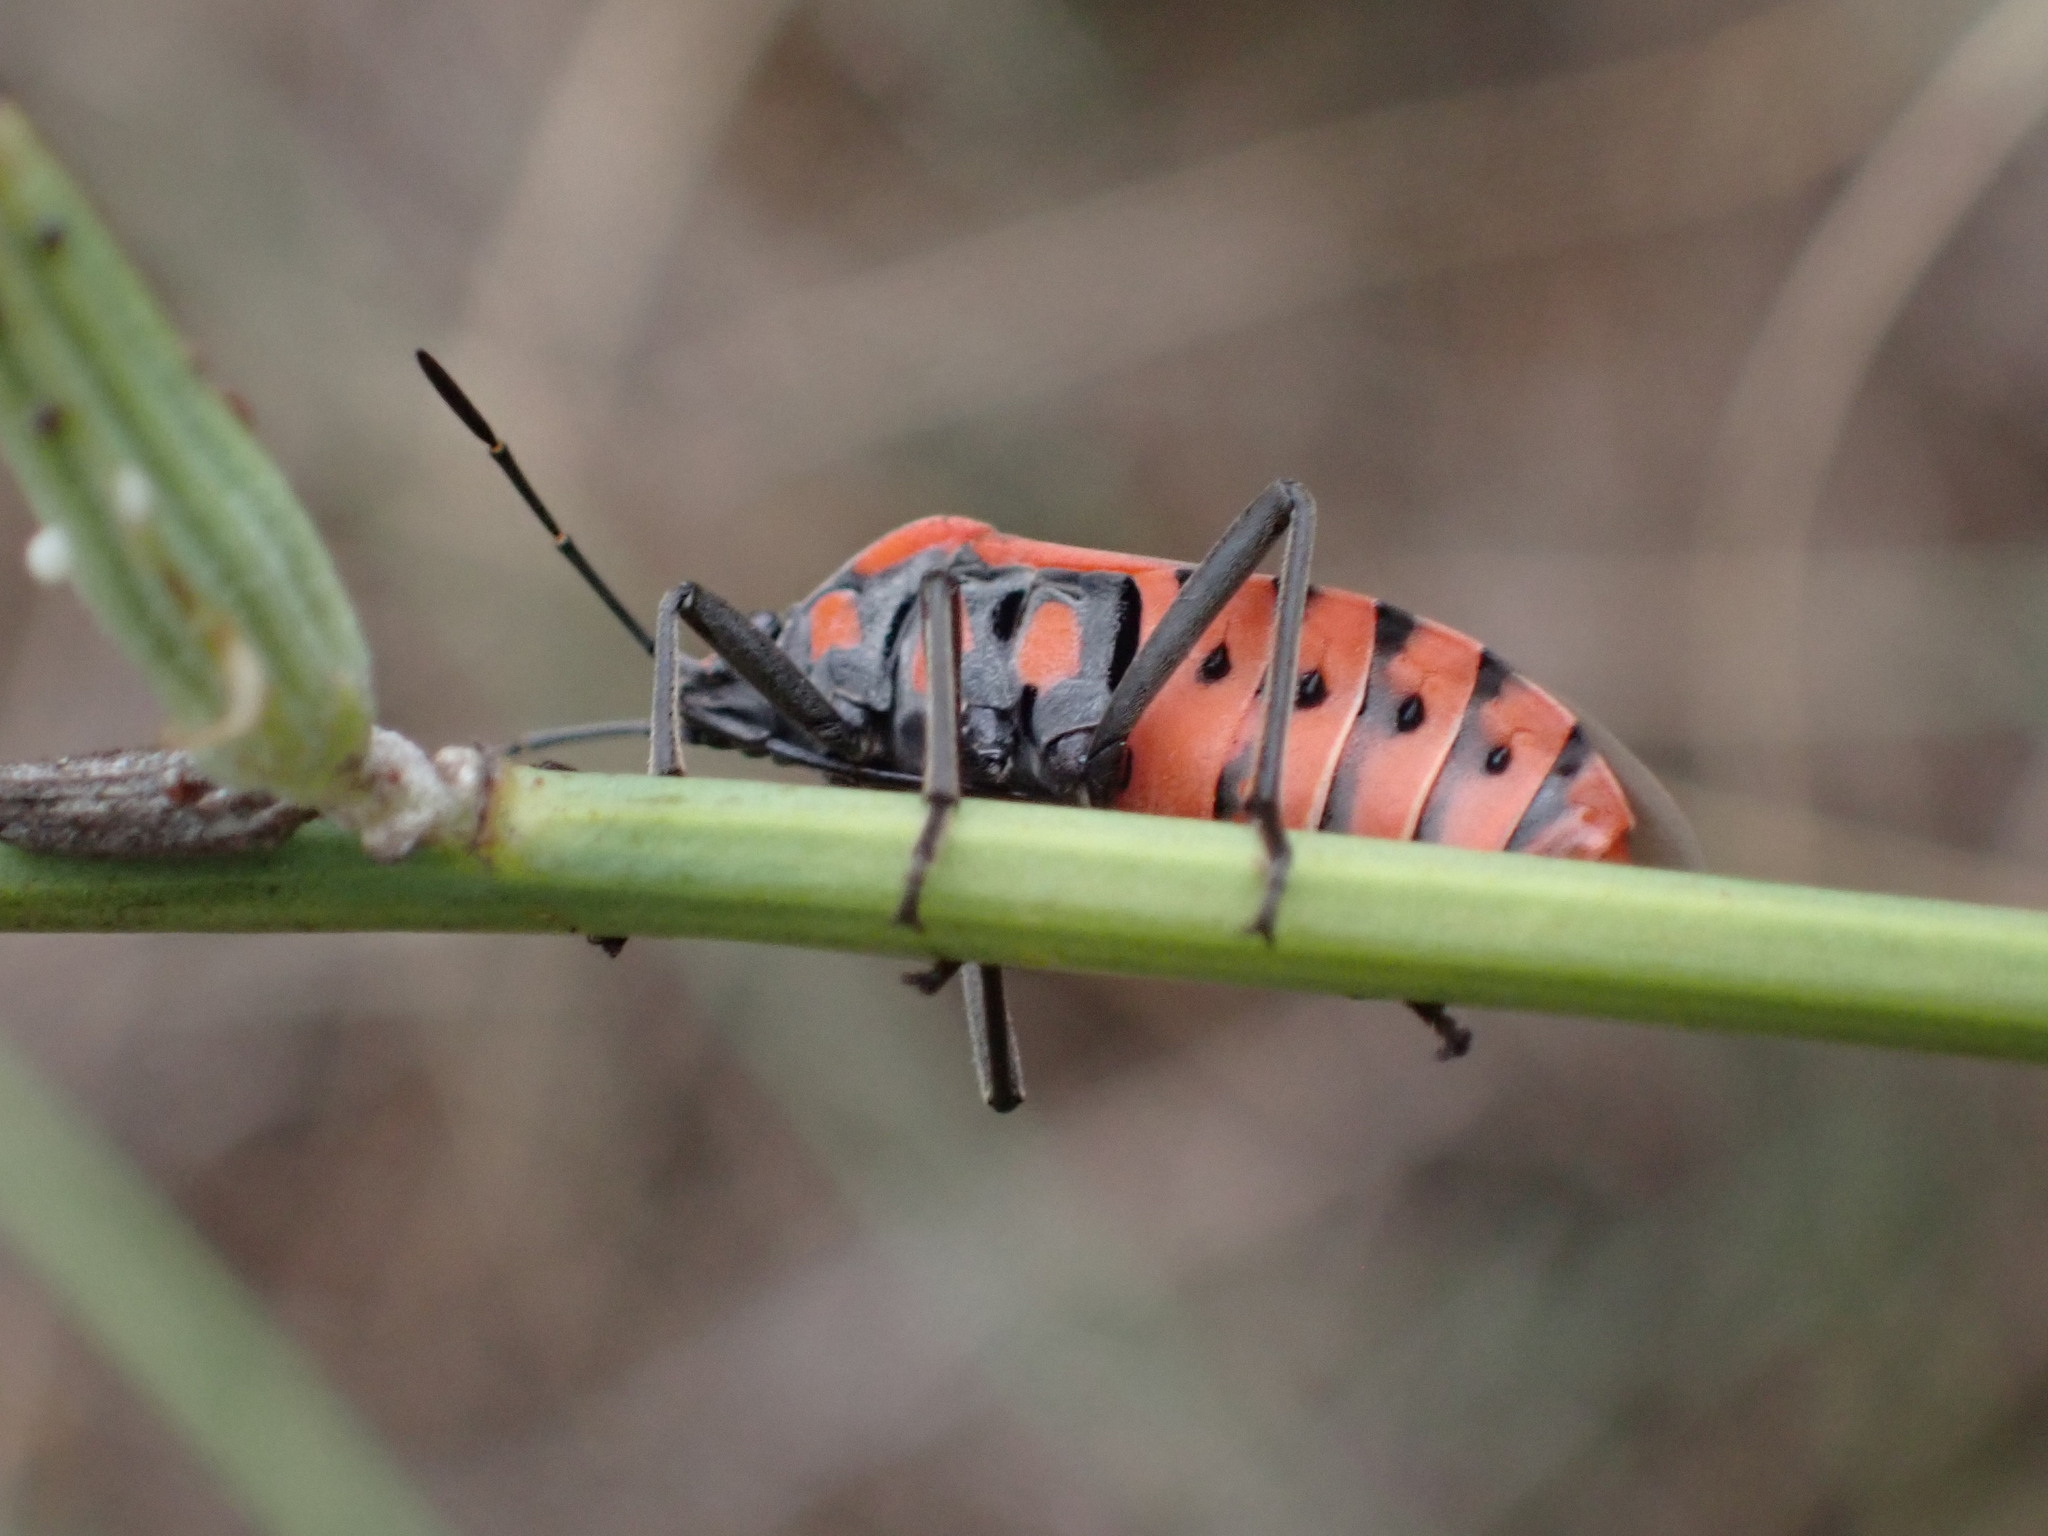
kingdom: Animalia
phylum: Arthropoda
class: Insecta
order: Hemiptera
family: Lygaeidae
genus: Spilostethus
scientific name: Spilostethus pandurus
